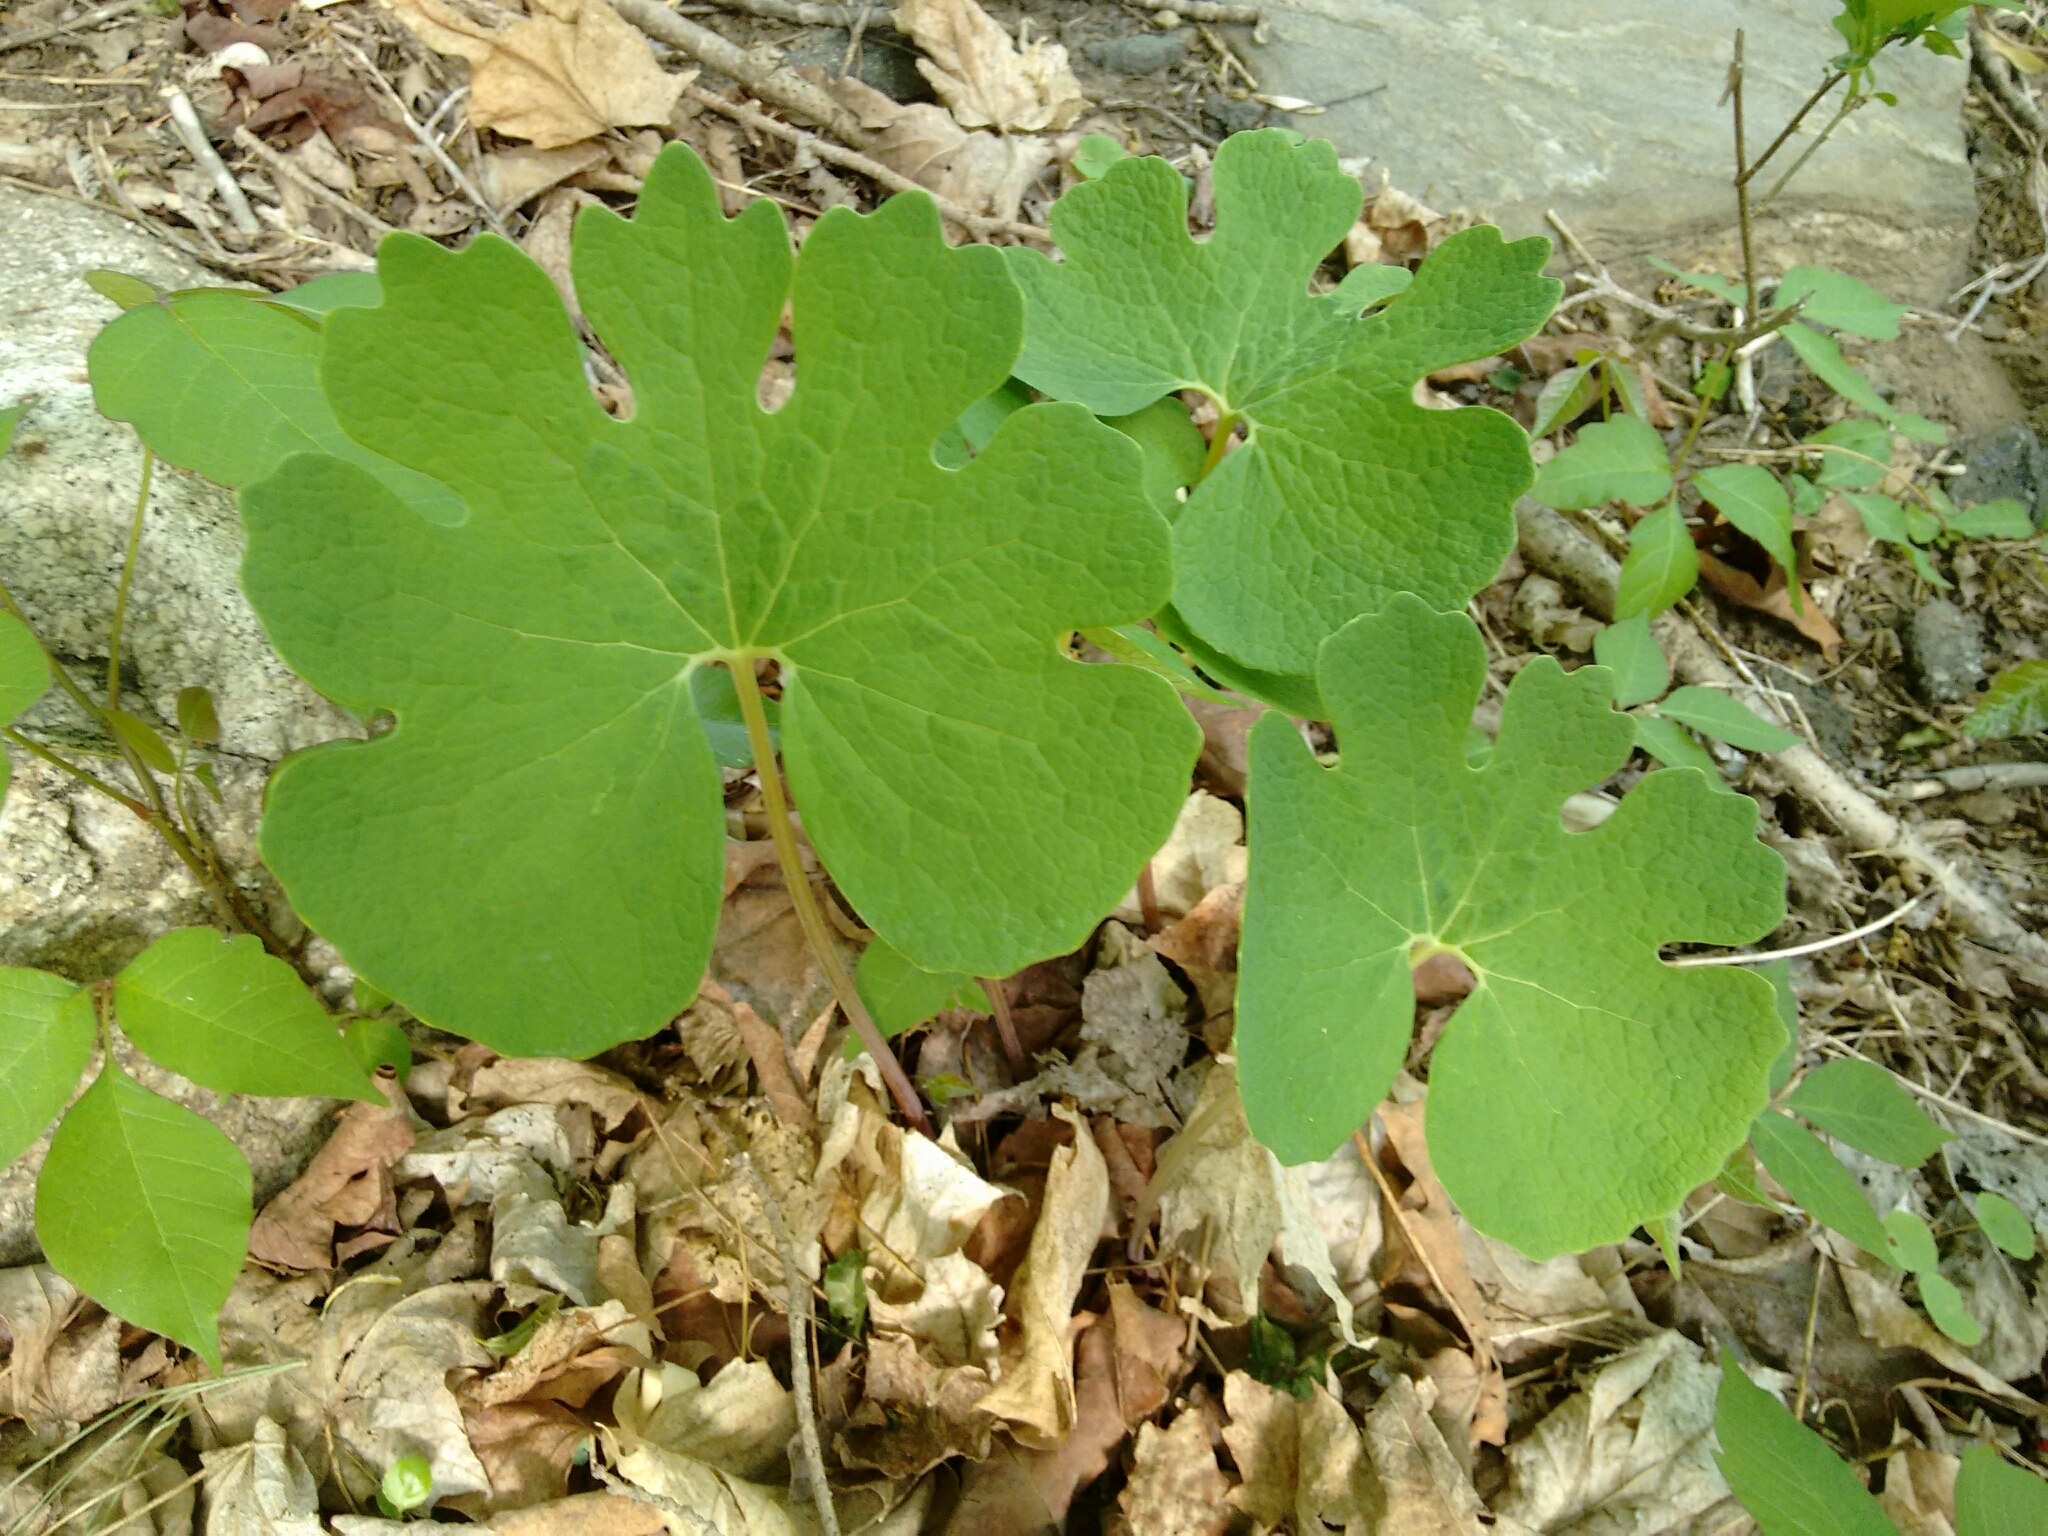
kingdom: Plantae
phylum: Tracheophyta
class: Magnoliopsida
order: Ranunculales
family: Papaveraceae
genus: Sanguinaria
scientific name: Sanguinaria canadensis
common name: Bloodroot
